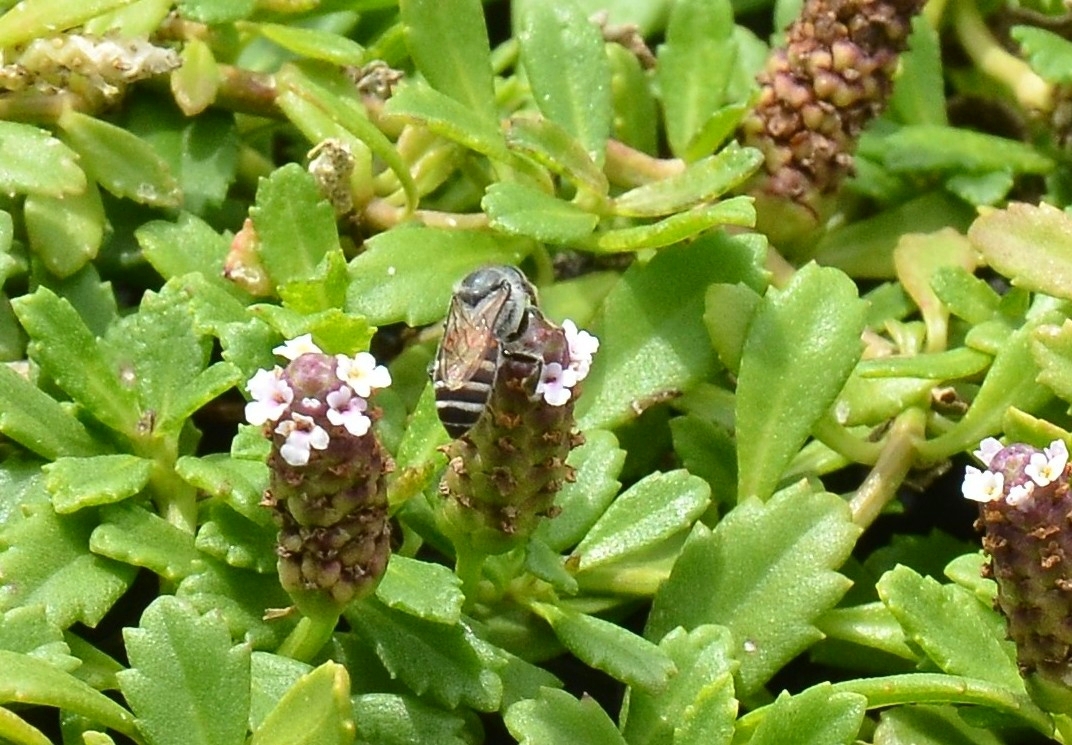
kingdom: Animalia
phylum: Arthropoda
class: Insecta
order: Hymenoptera
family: Apidae
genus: Apis
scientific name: Apis florea
